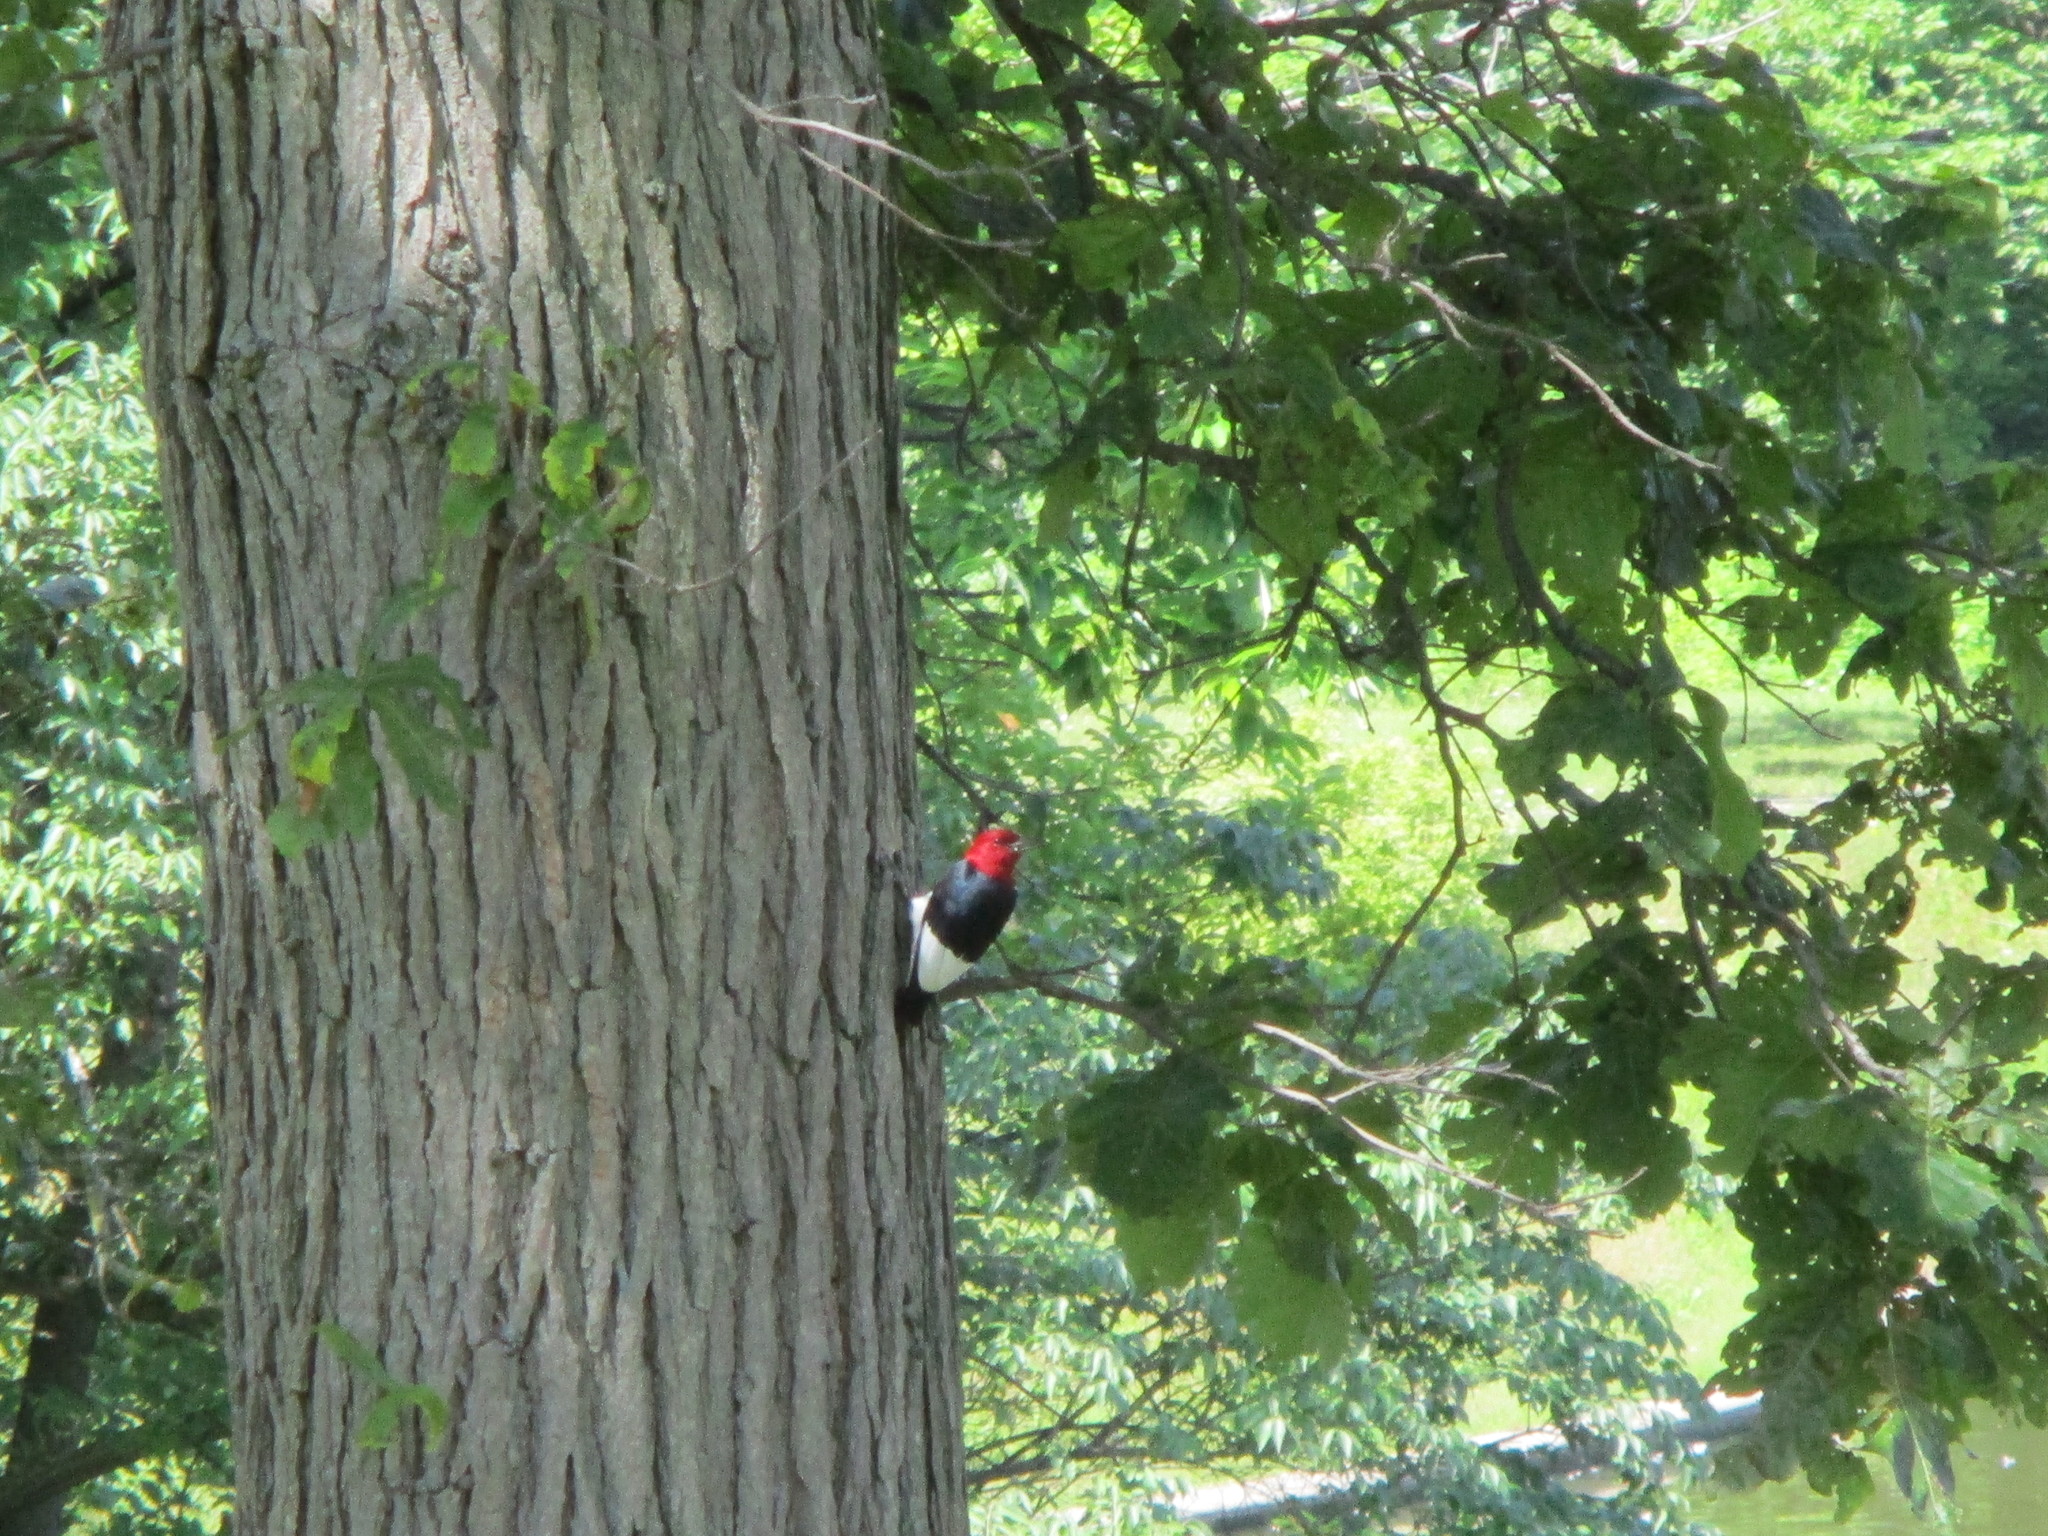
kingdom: Animalia
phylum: Chordata
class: Aves
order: Piciformes
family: Picidae
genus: Melanerpes
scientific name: Melanerpes erythrocephalus
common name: Red-headed woodpecker
